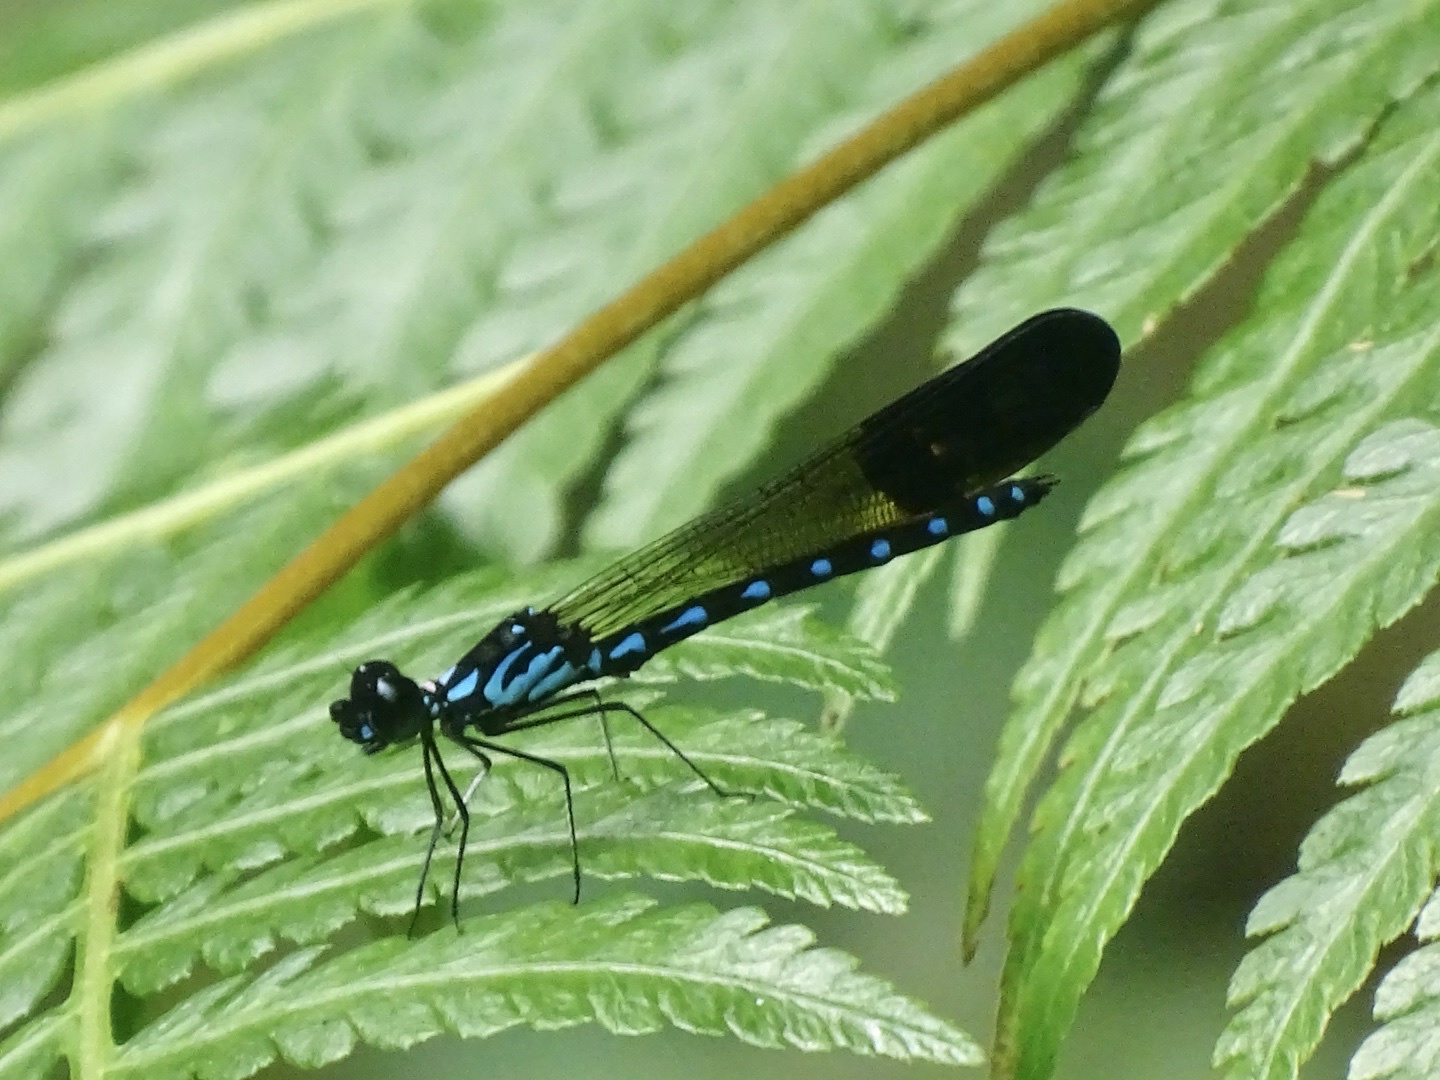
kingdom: Animalia
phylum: Arthropoda
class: Insecta
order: Odonata
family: Chlorocyphidae
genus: Heliocypha
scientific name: Heliocypha perforata
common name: Common blue jewel
